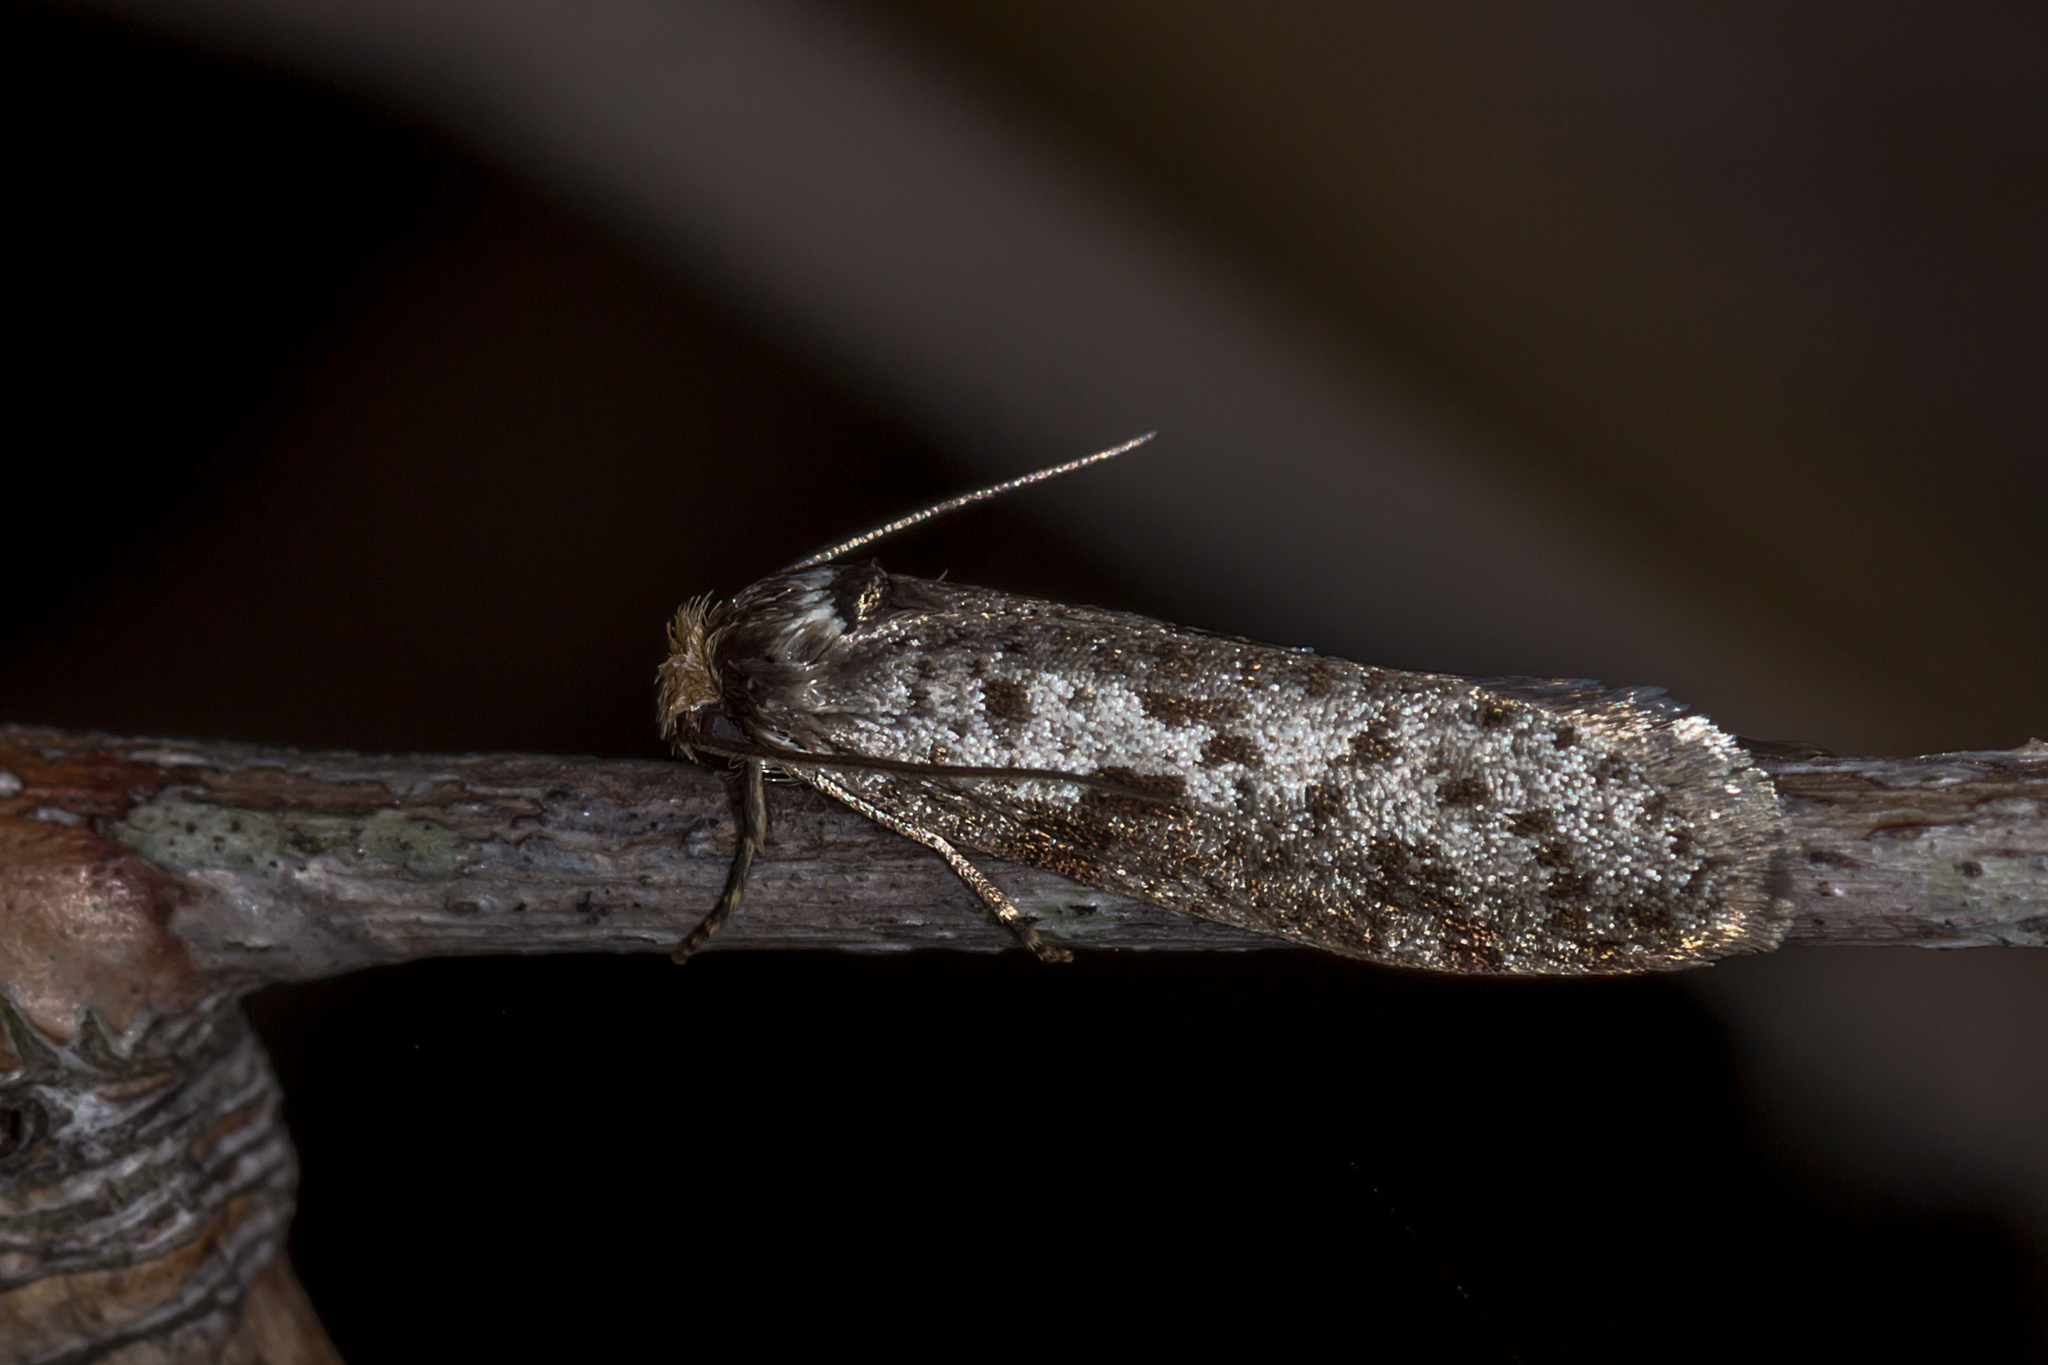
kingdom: Animalia
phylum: Arthropoda
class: Insecta
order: Lepidoptera
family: Psychidae
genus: Lepidoscia
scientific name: Lepidoscia protorna
